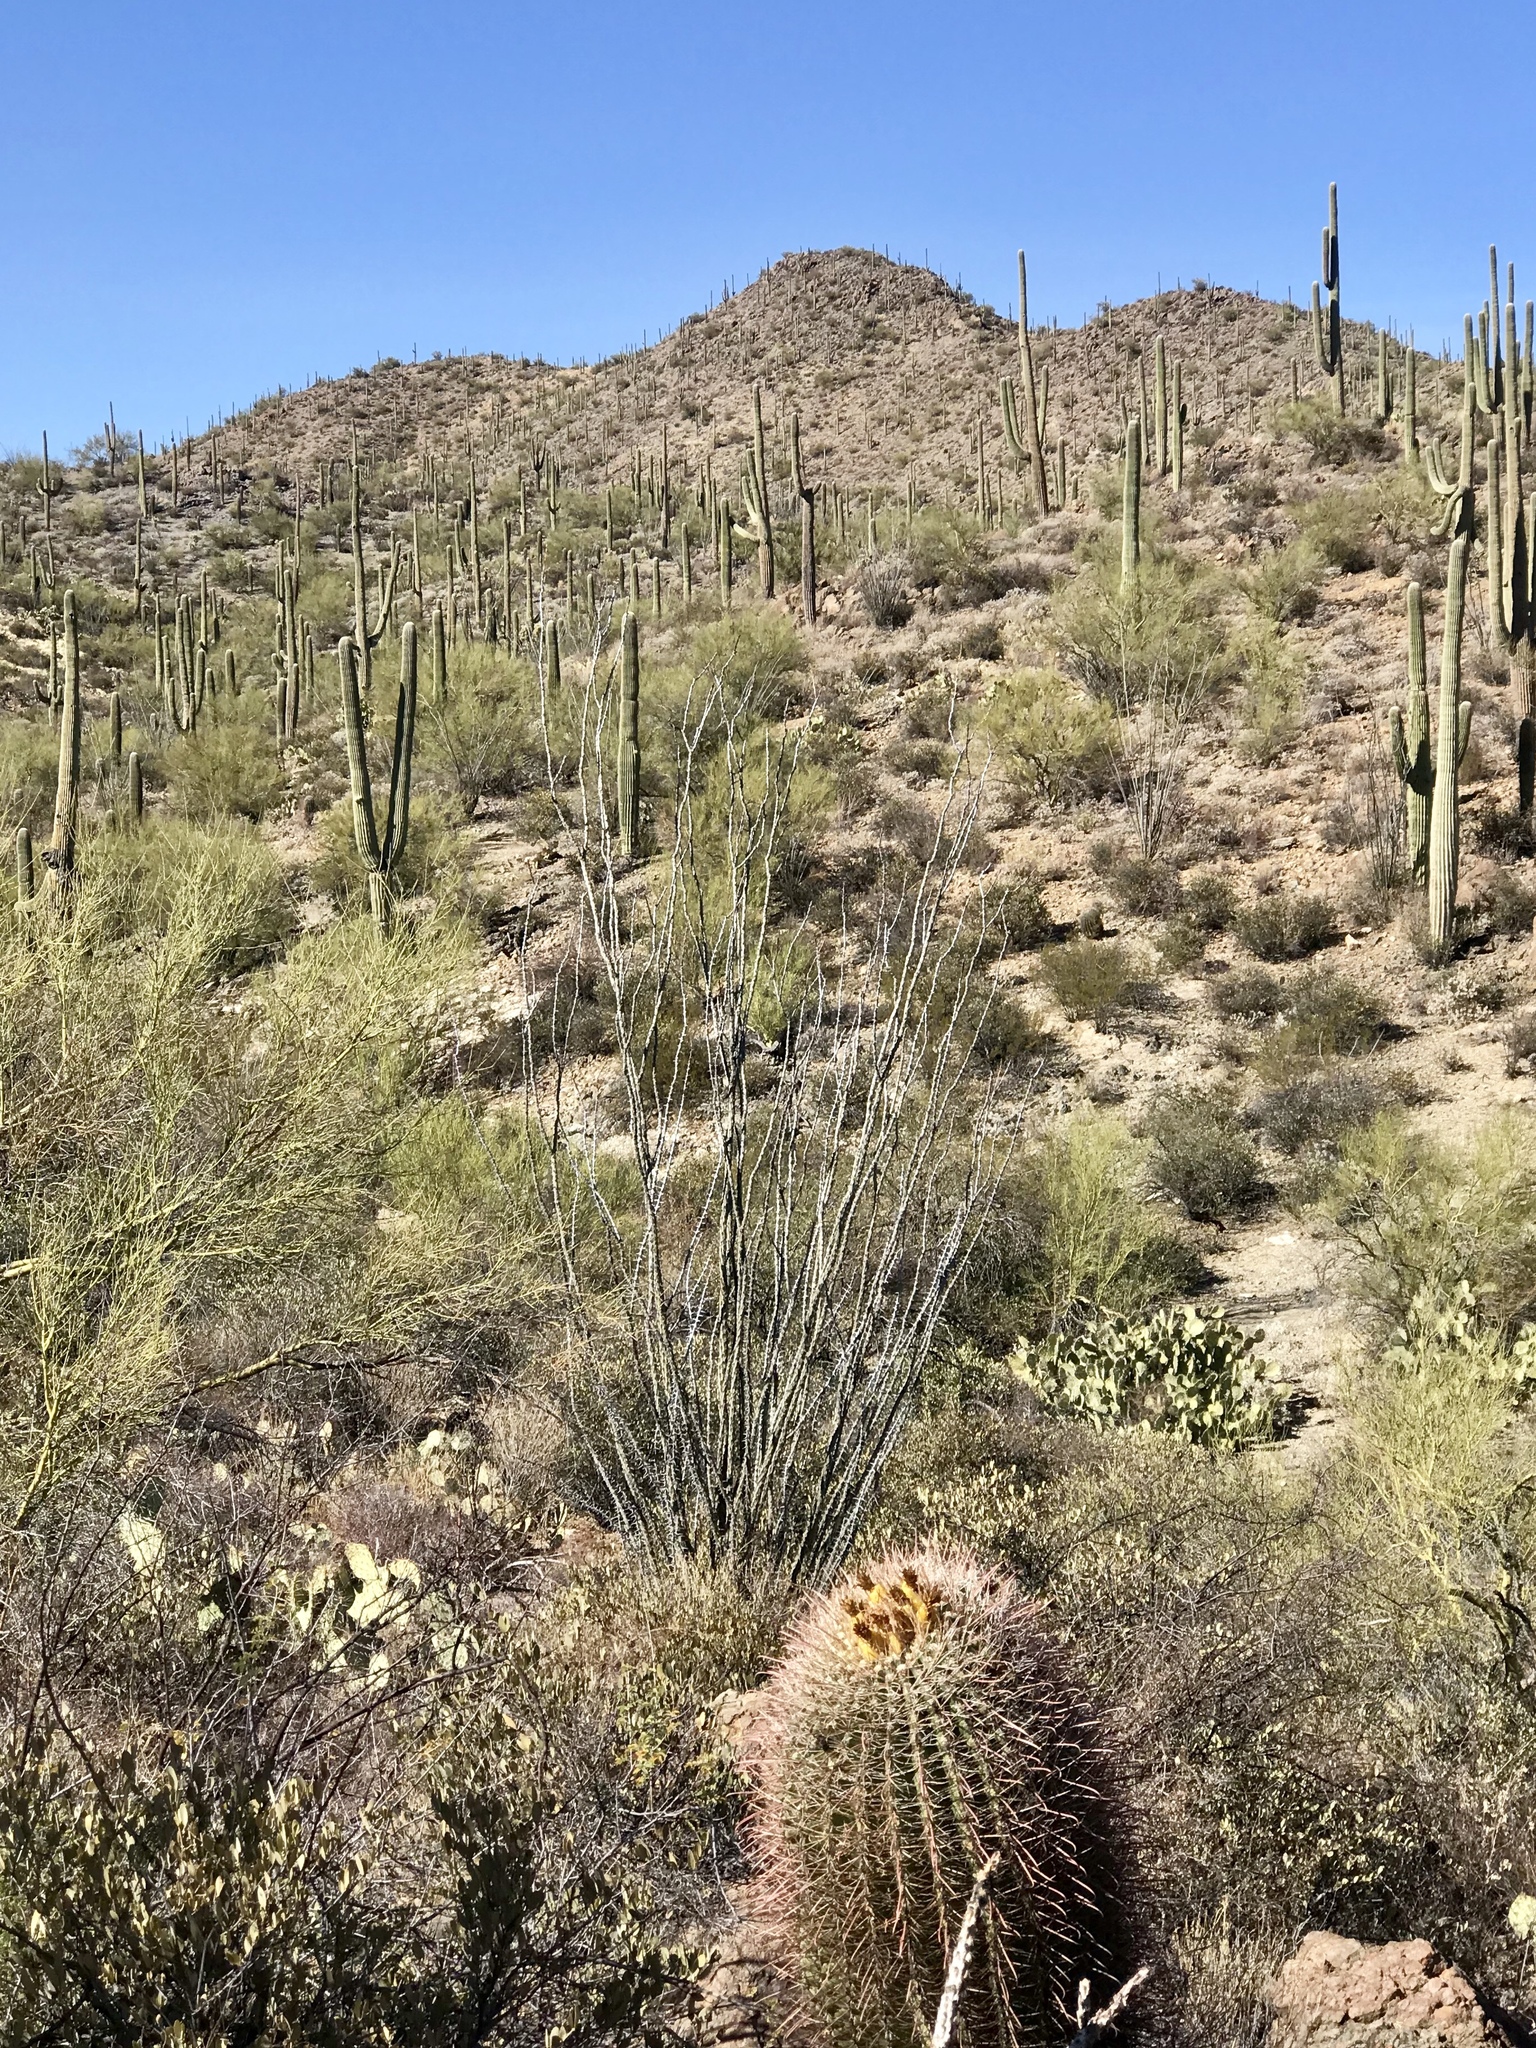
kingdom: Plantae
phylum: Tracheophyta
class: Magnoliopsida
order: Caryophyllales
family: Cactaceae
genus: Carnegiea
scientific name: Carnegiea gigantea
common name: Saguaro
